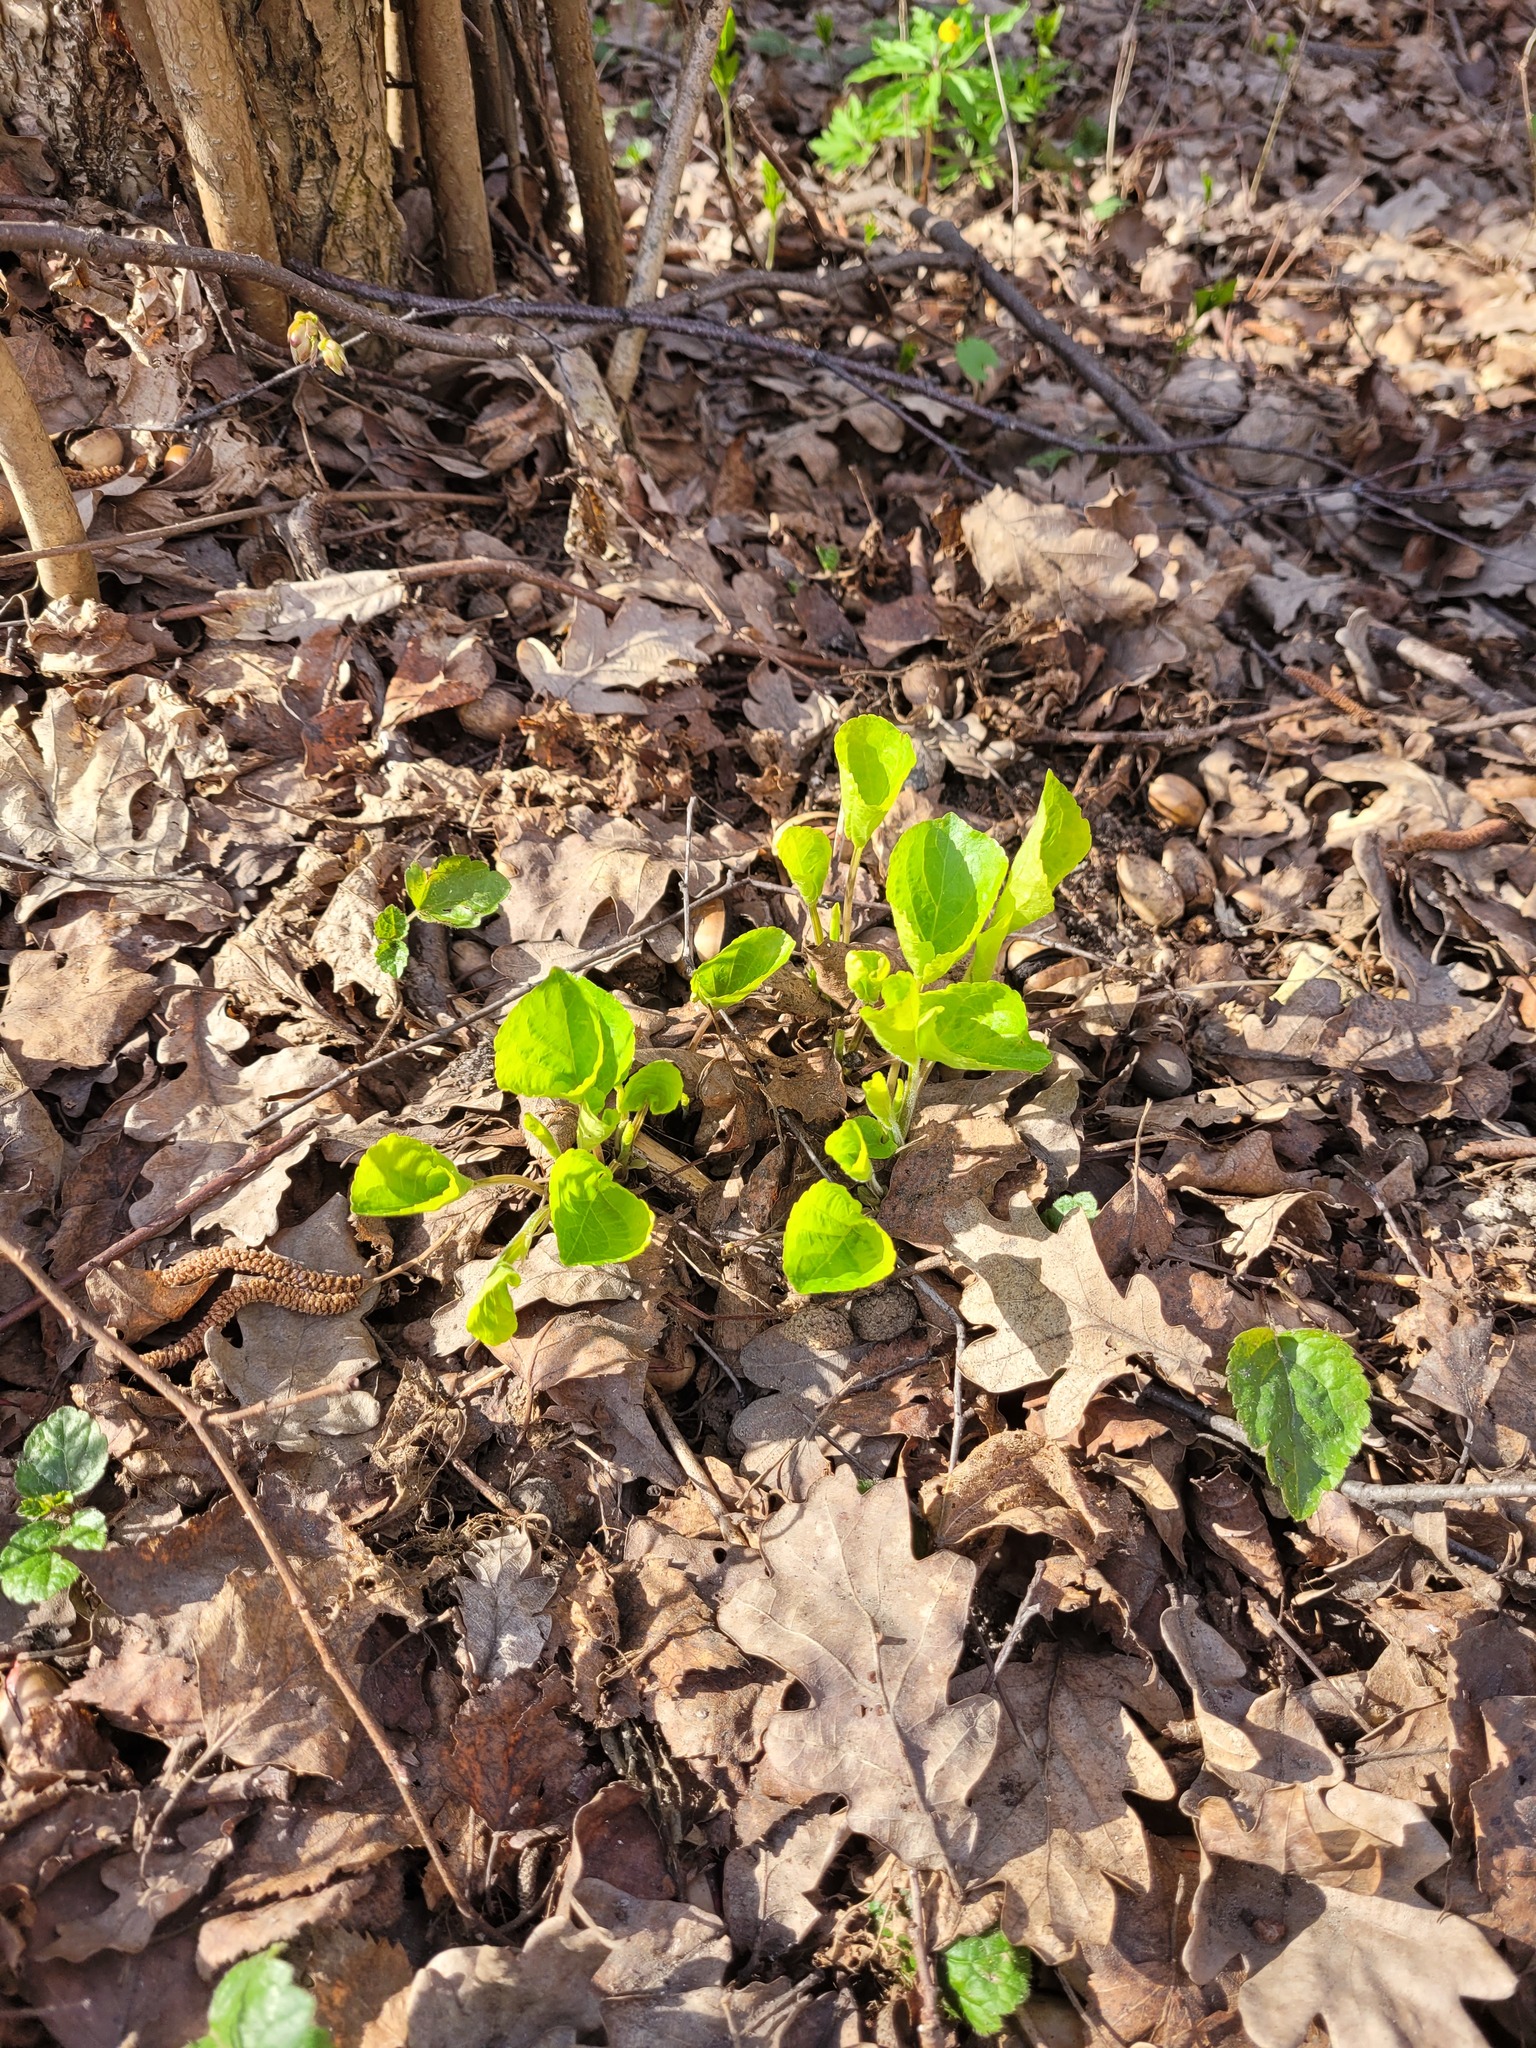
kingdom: Plantae
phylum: Tracheophyta
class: Magnoliopsida
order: Malpighiales
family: Violaceae
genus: Viola
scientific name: Viola mirabilis
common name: Wonder violet
